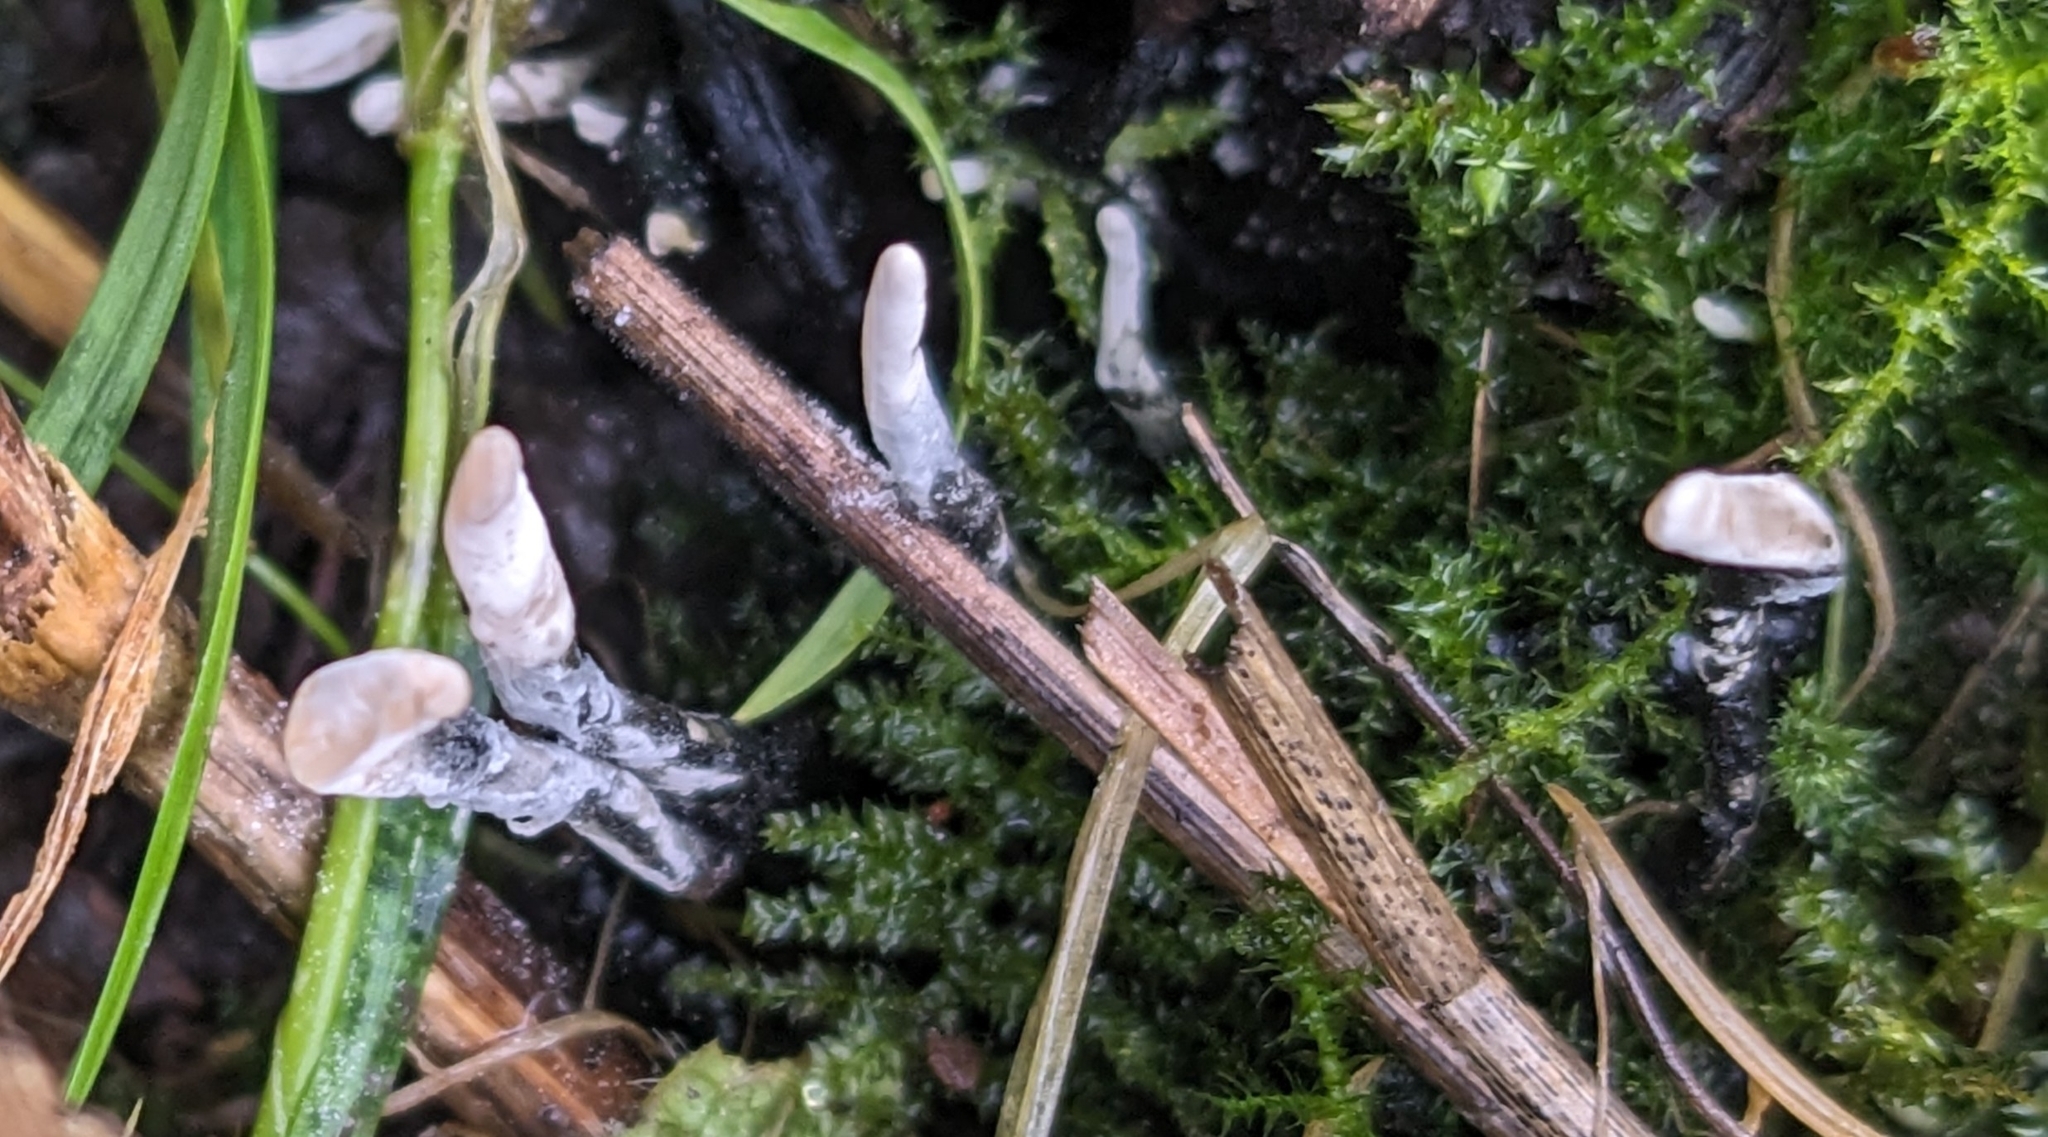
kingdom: Fungi
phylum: Ascomycota
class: Sordariomycetes
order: Xylariales
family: Xylariaceae
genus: Xylaria
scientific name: Xylaria hypoxylon
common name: Candle-snuff fungus
